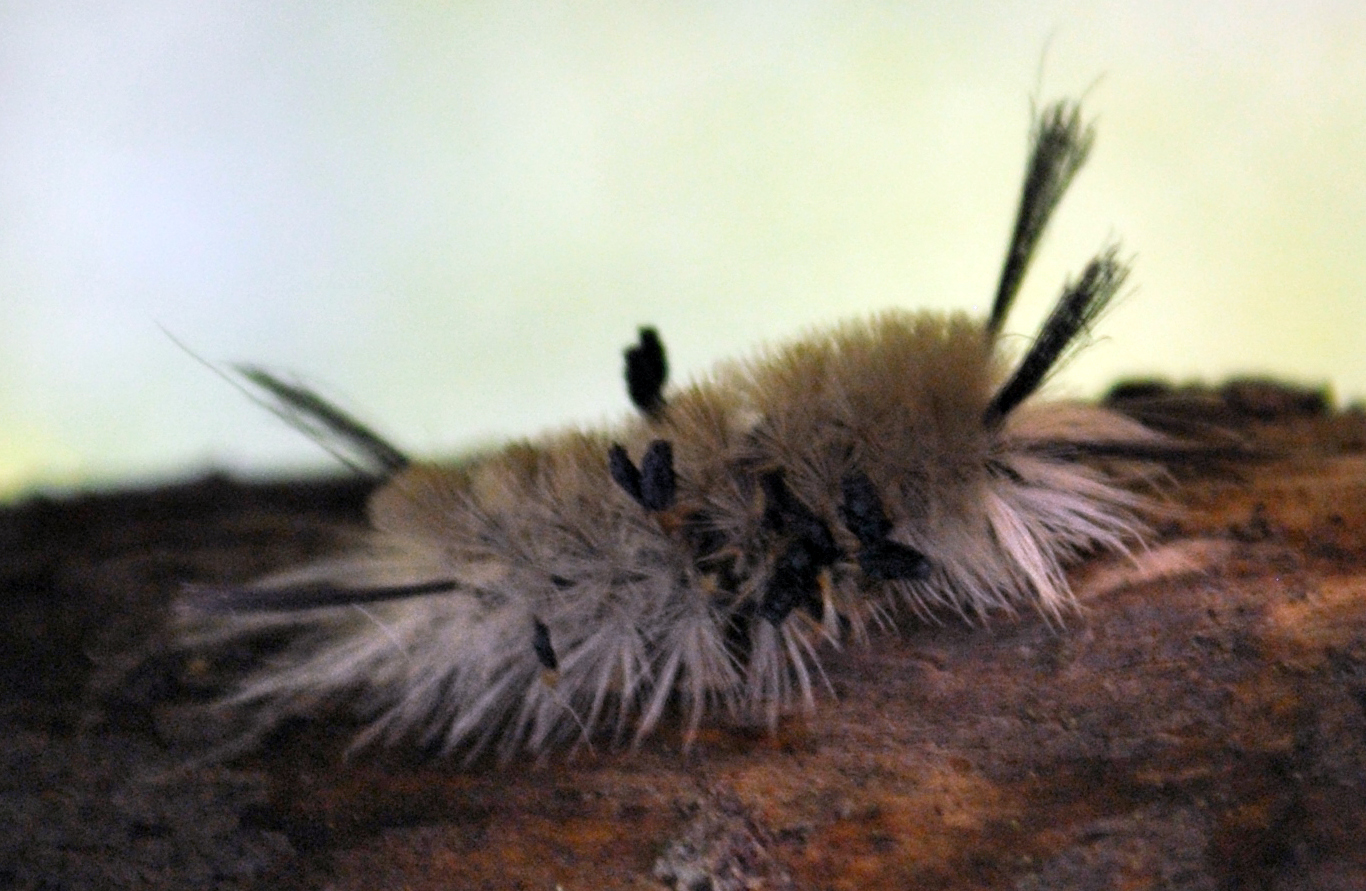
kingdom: Animalia
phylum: Arthropoda
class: Insecta
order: Lepidoptera
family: Erebidae
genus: Halysidota
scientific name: Halysidota tessellaris
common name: Banded tussock moth
